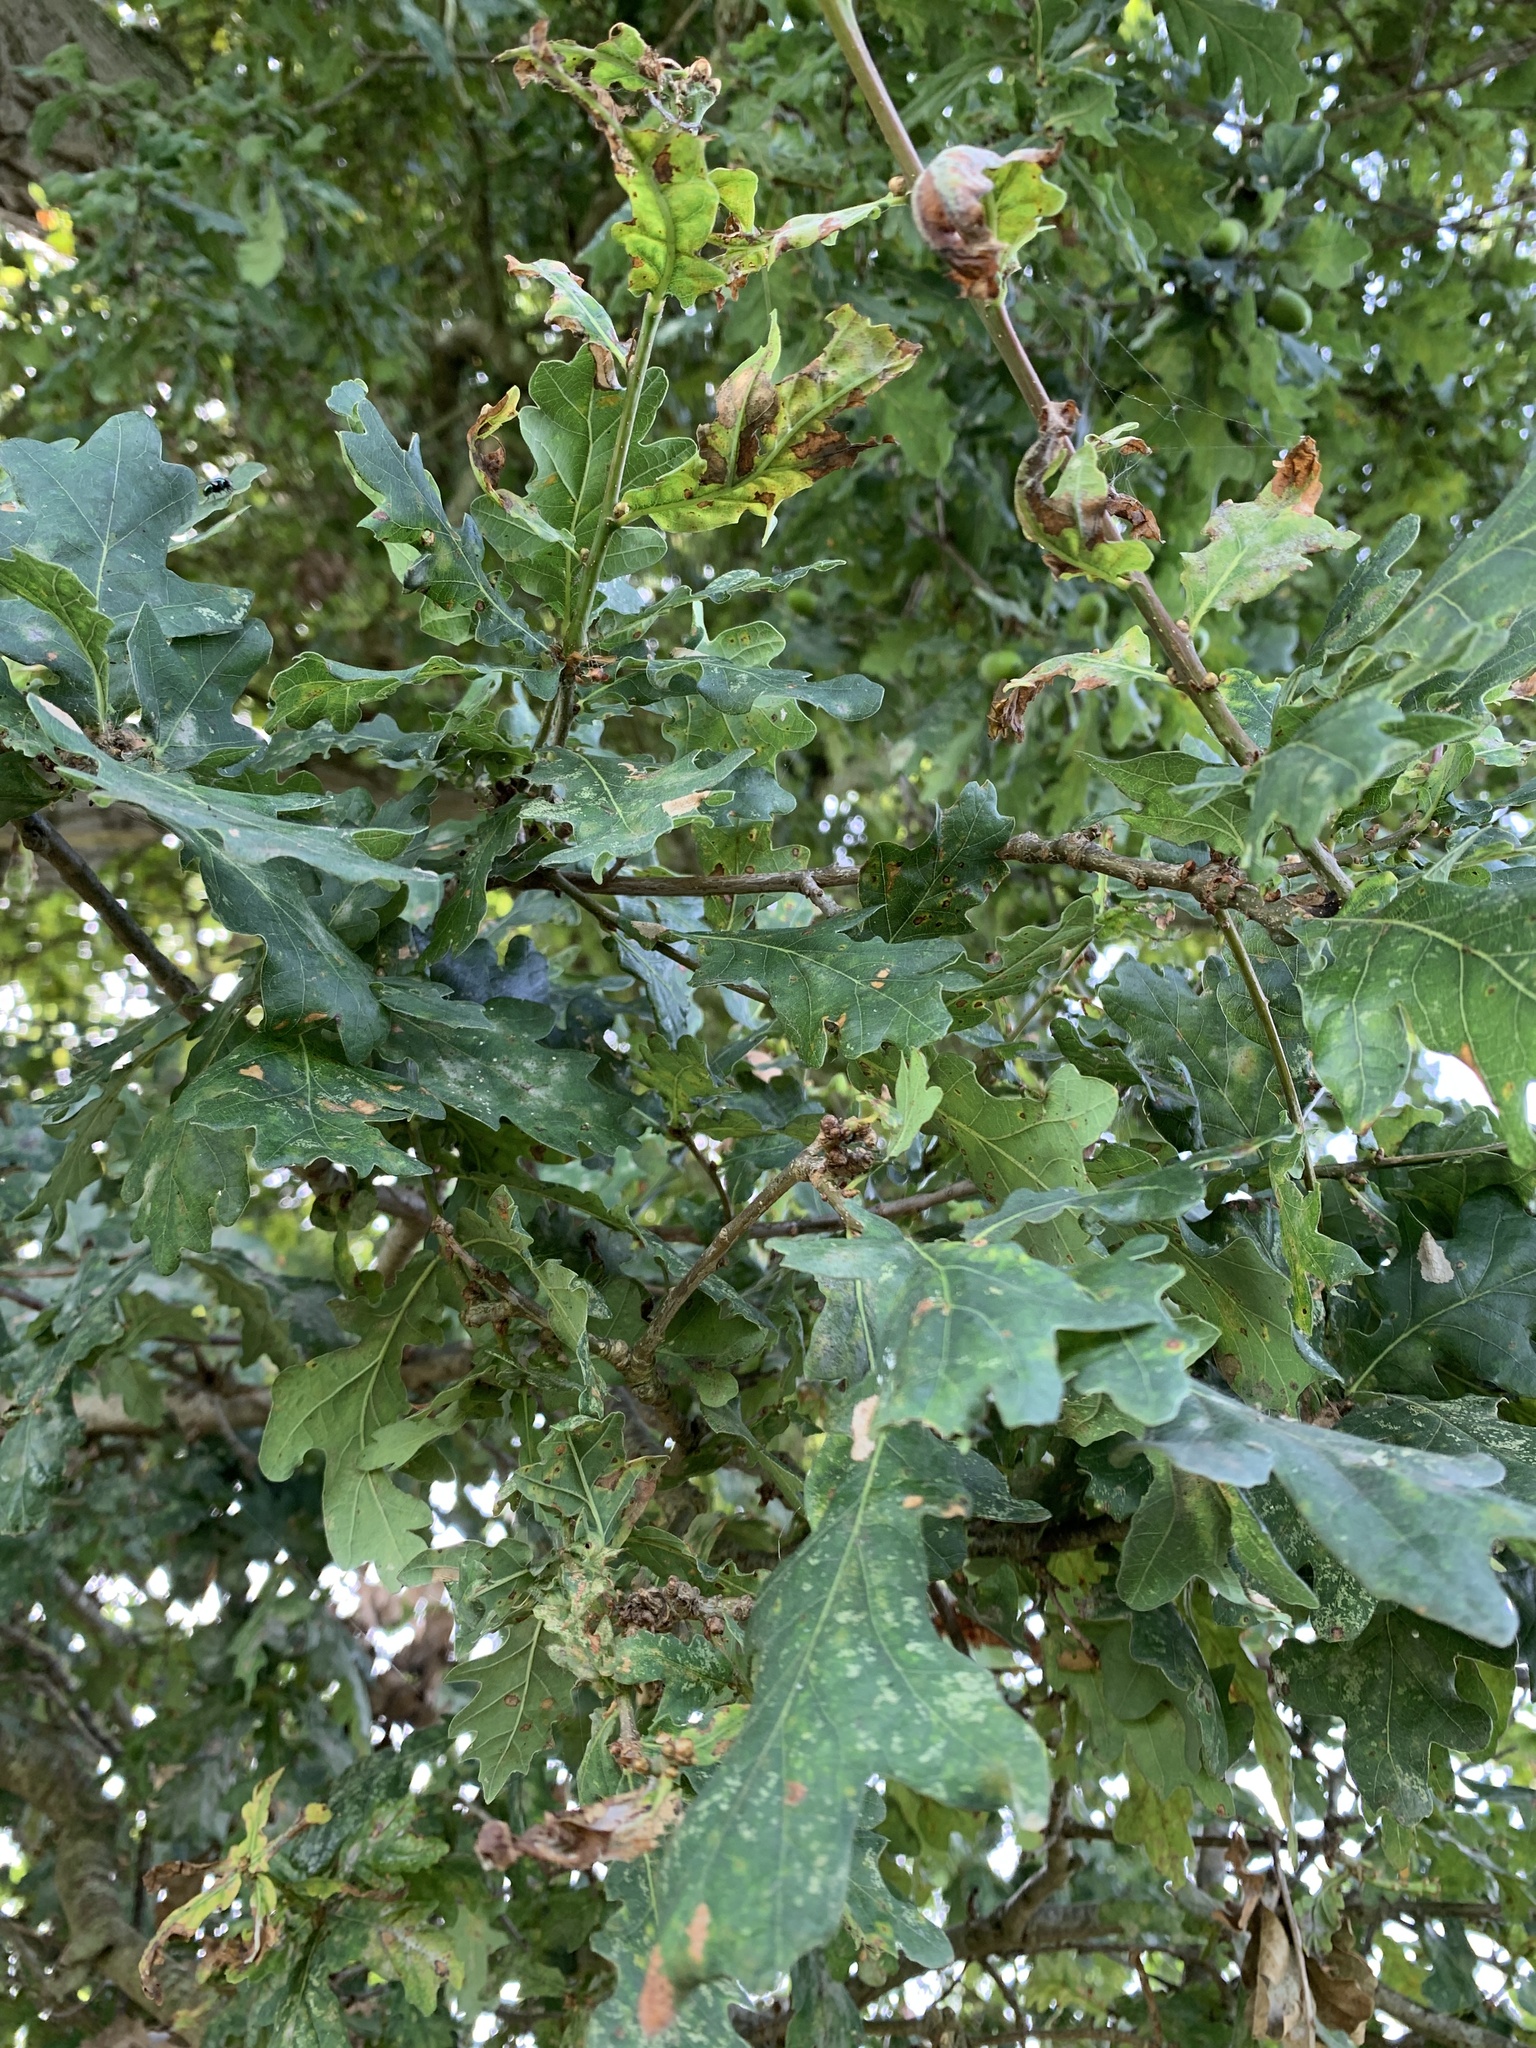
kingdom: Plantae
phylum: Tracheophyta
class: Magnoliopsida
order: Fagales
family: Fagaceae
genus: Quercus
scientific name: Quercus robur
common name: Pedunculate oak
